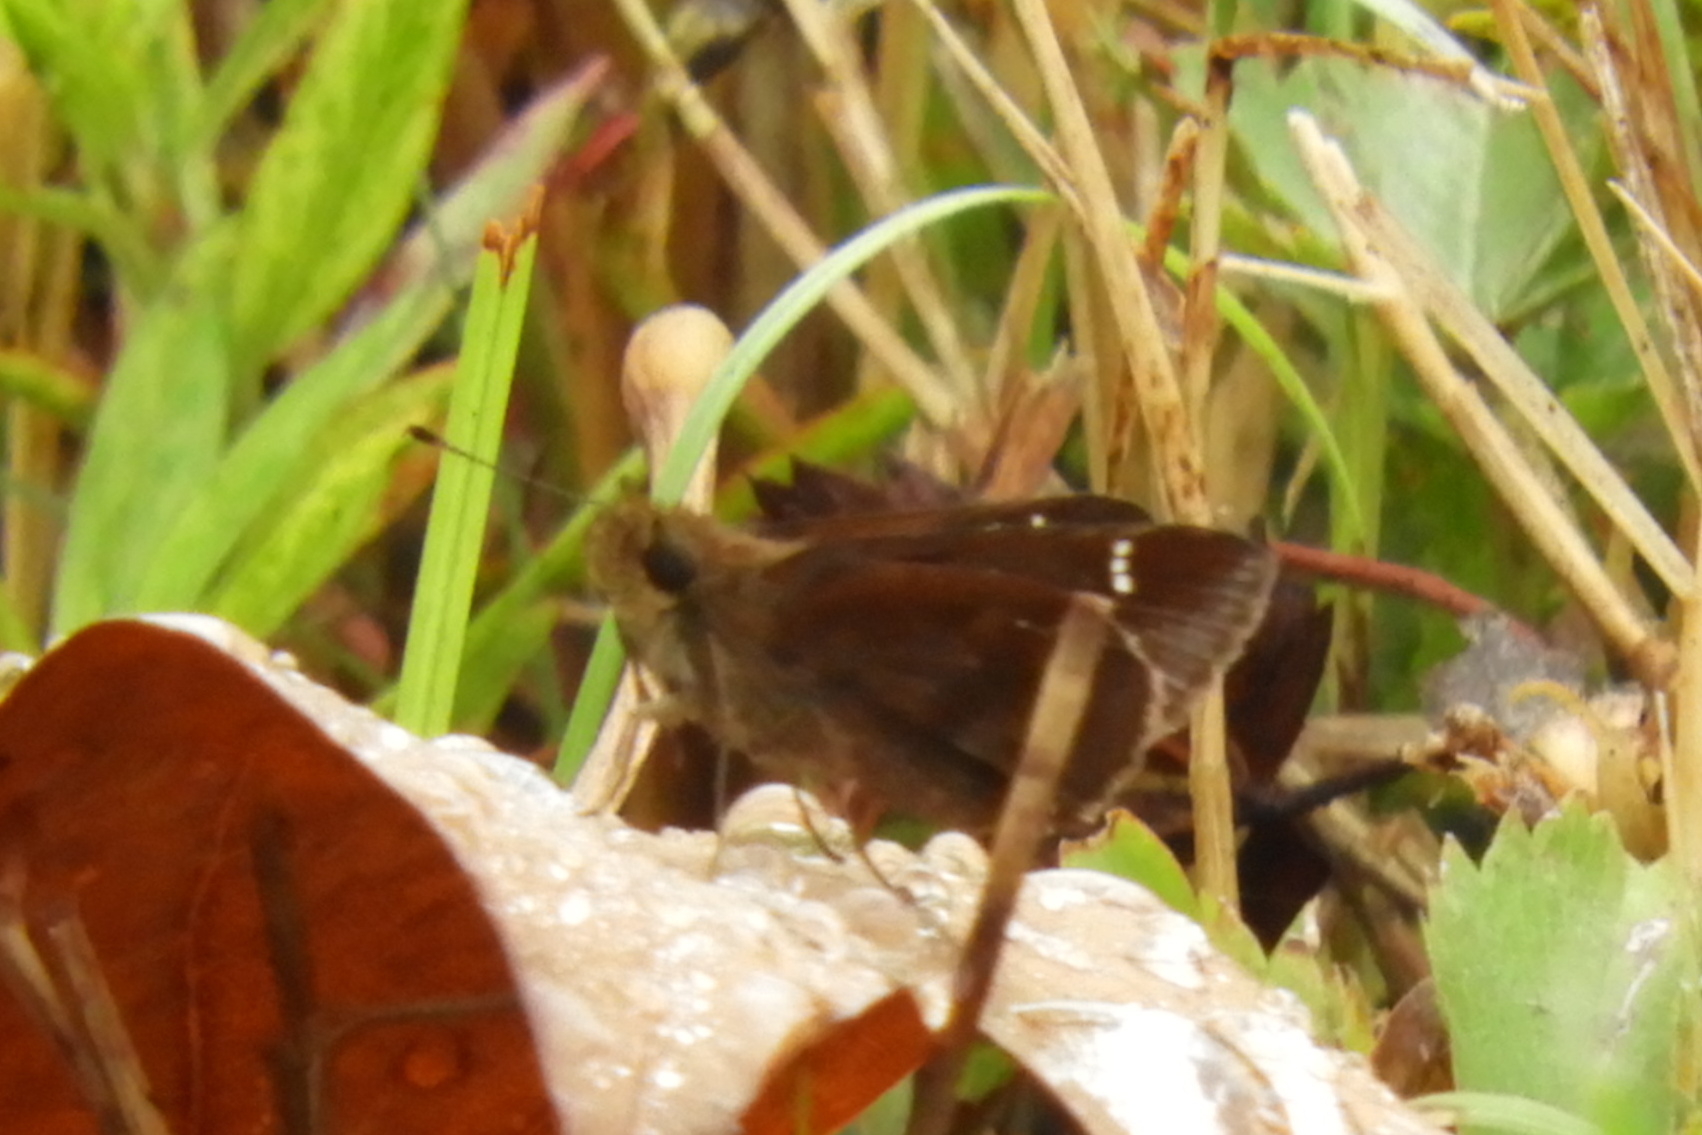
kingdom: Animalia
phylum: Arthropoda
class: Insecta
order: Lepidoptera
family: Hesperiidae
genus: Lerema
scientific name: Lerema accius
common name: Clouded skipper
